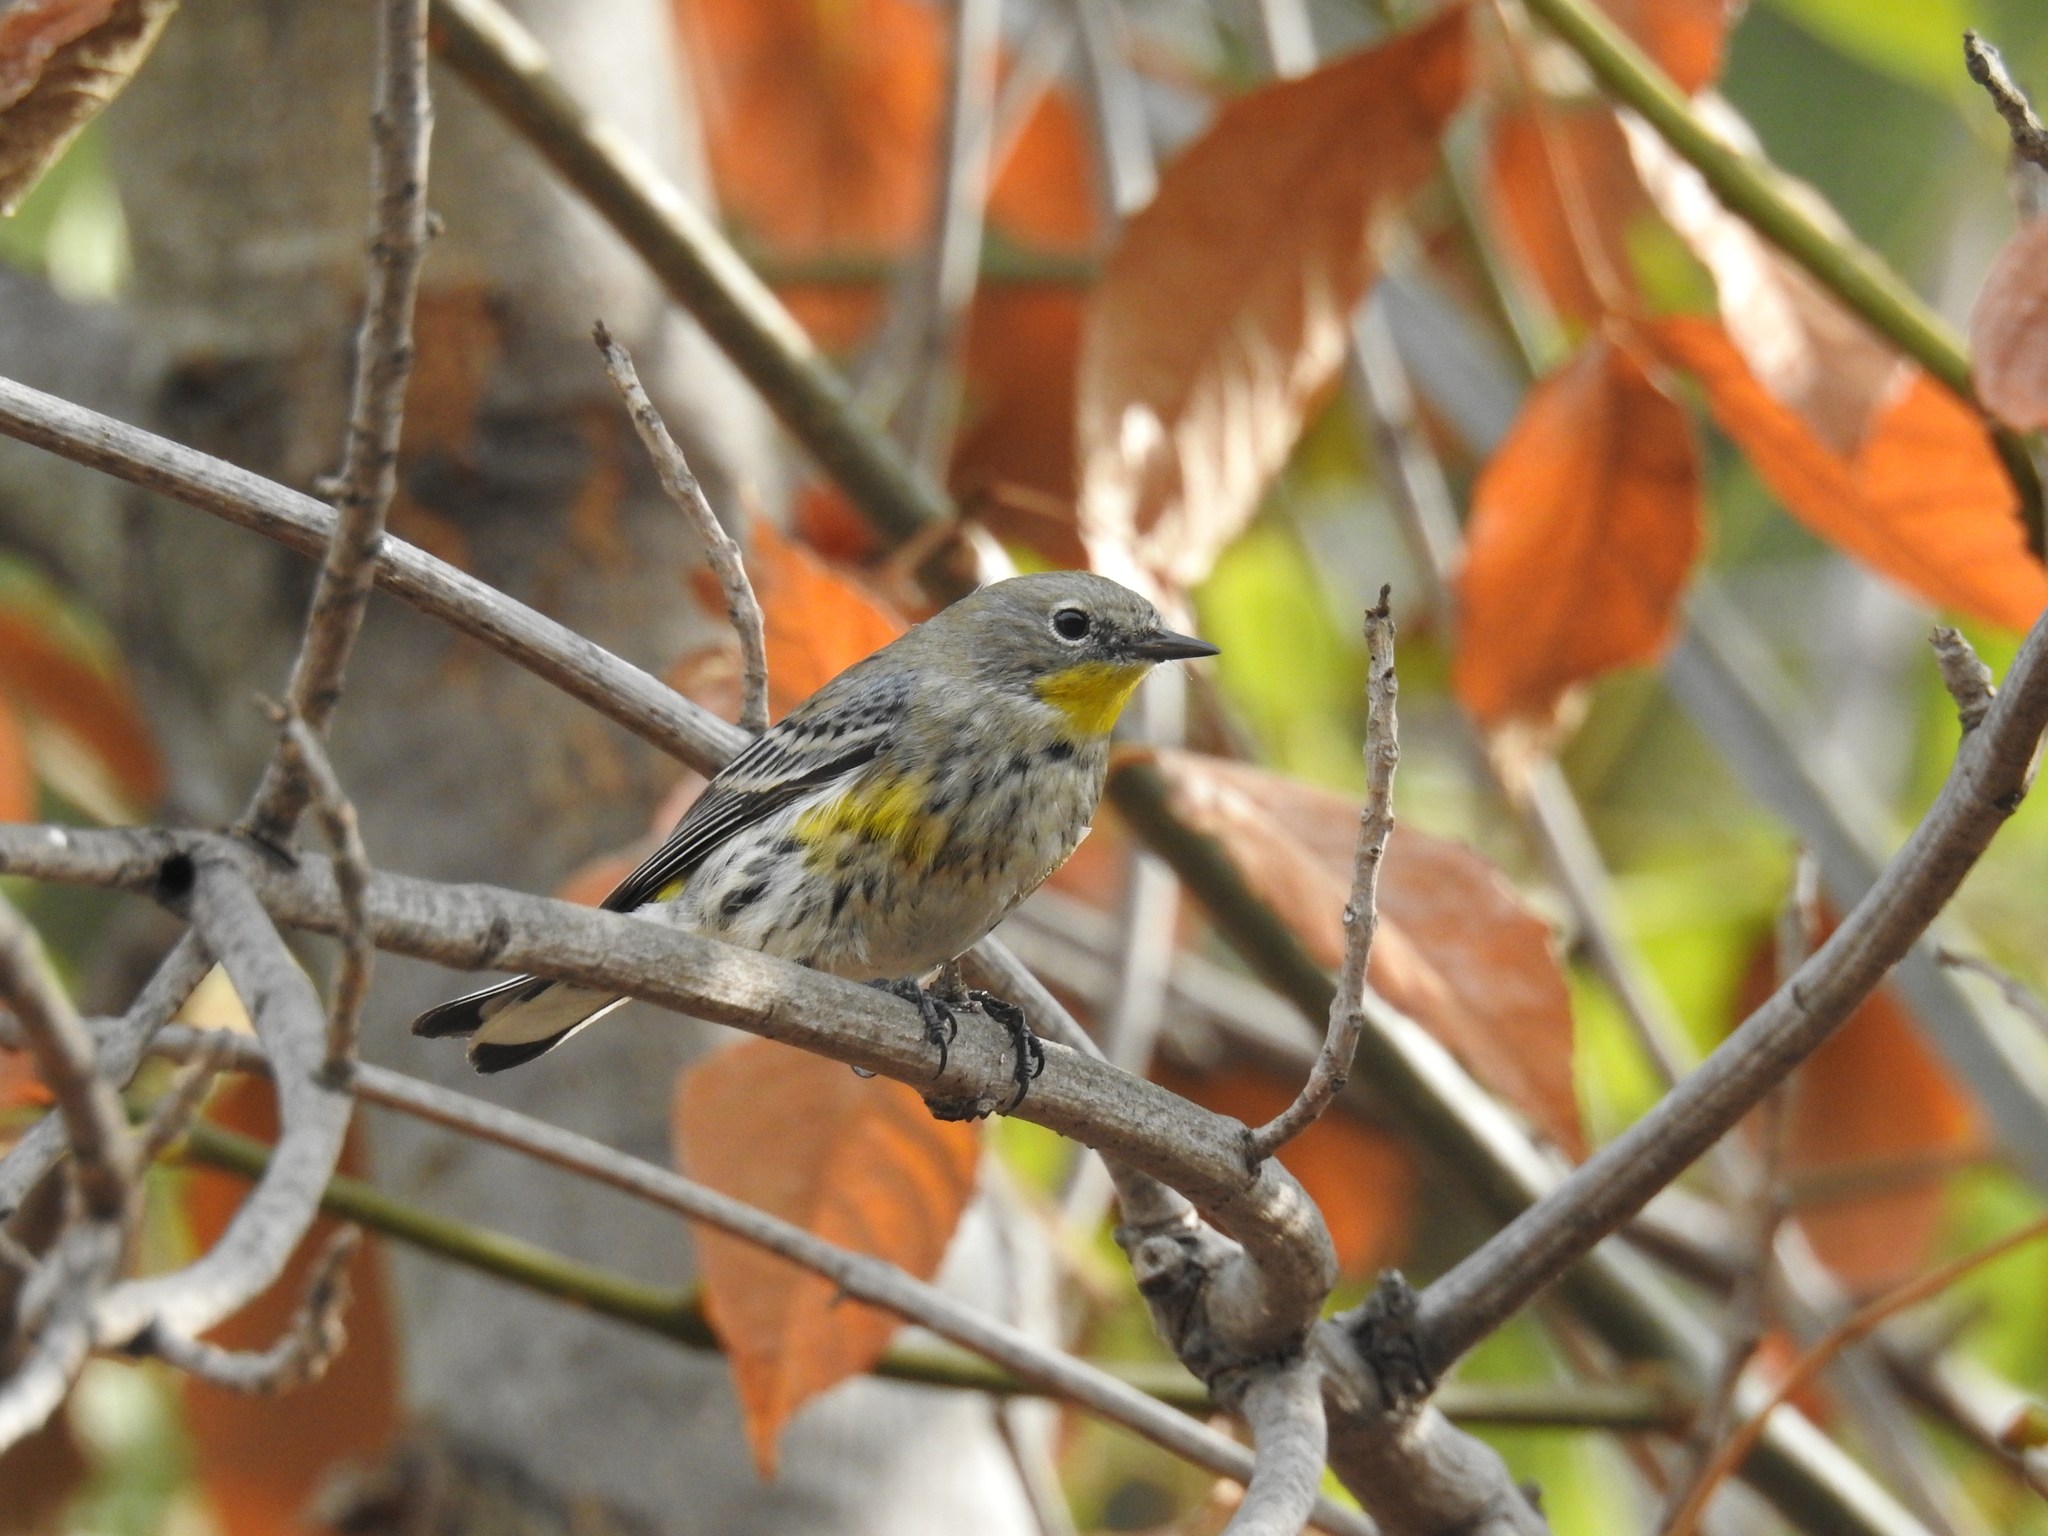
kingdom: Animalia
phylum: Chordata
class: Aves
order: Passeriformes
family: Parulidae
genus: Setophaga
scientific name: Setophaga coronata
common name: Myrtle warbler
